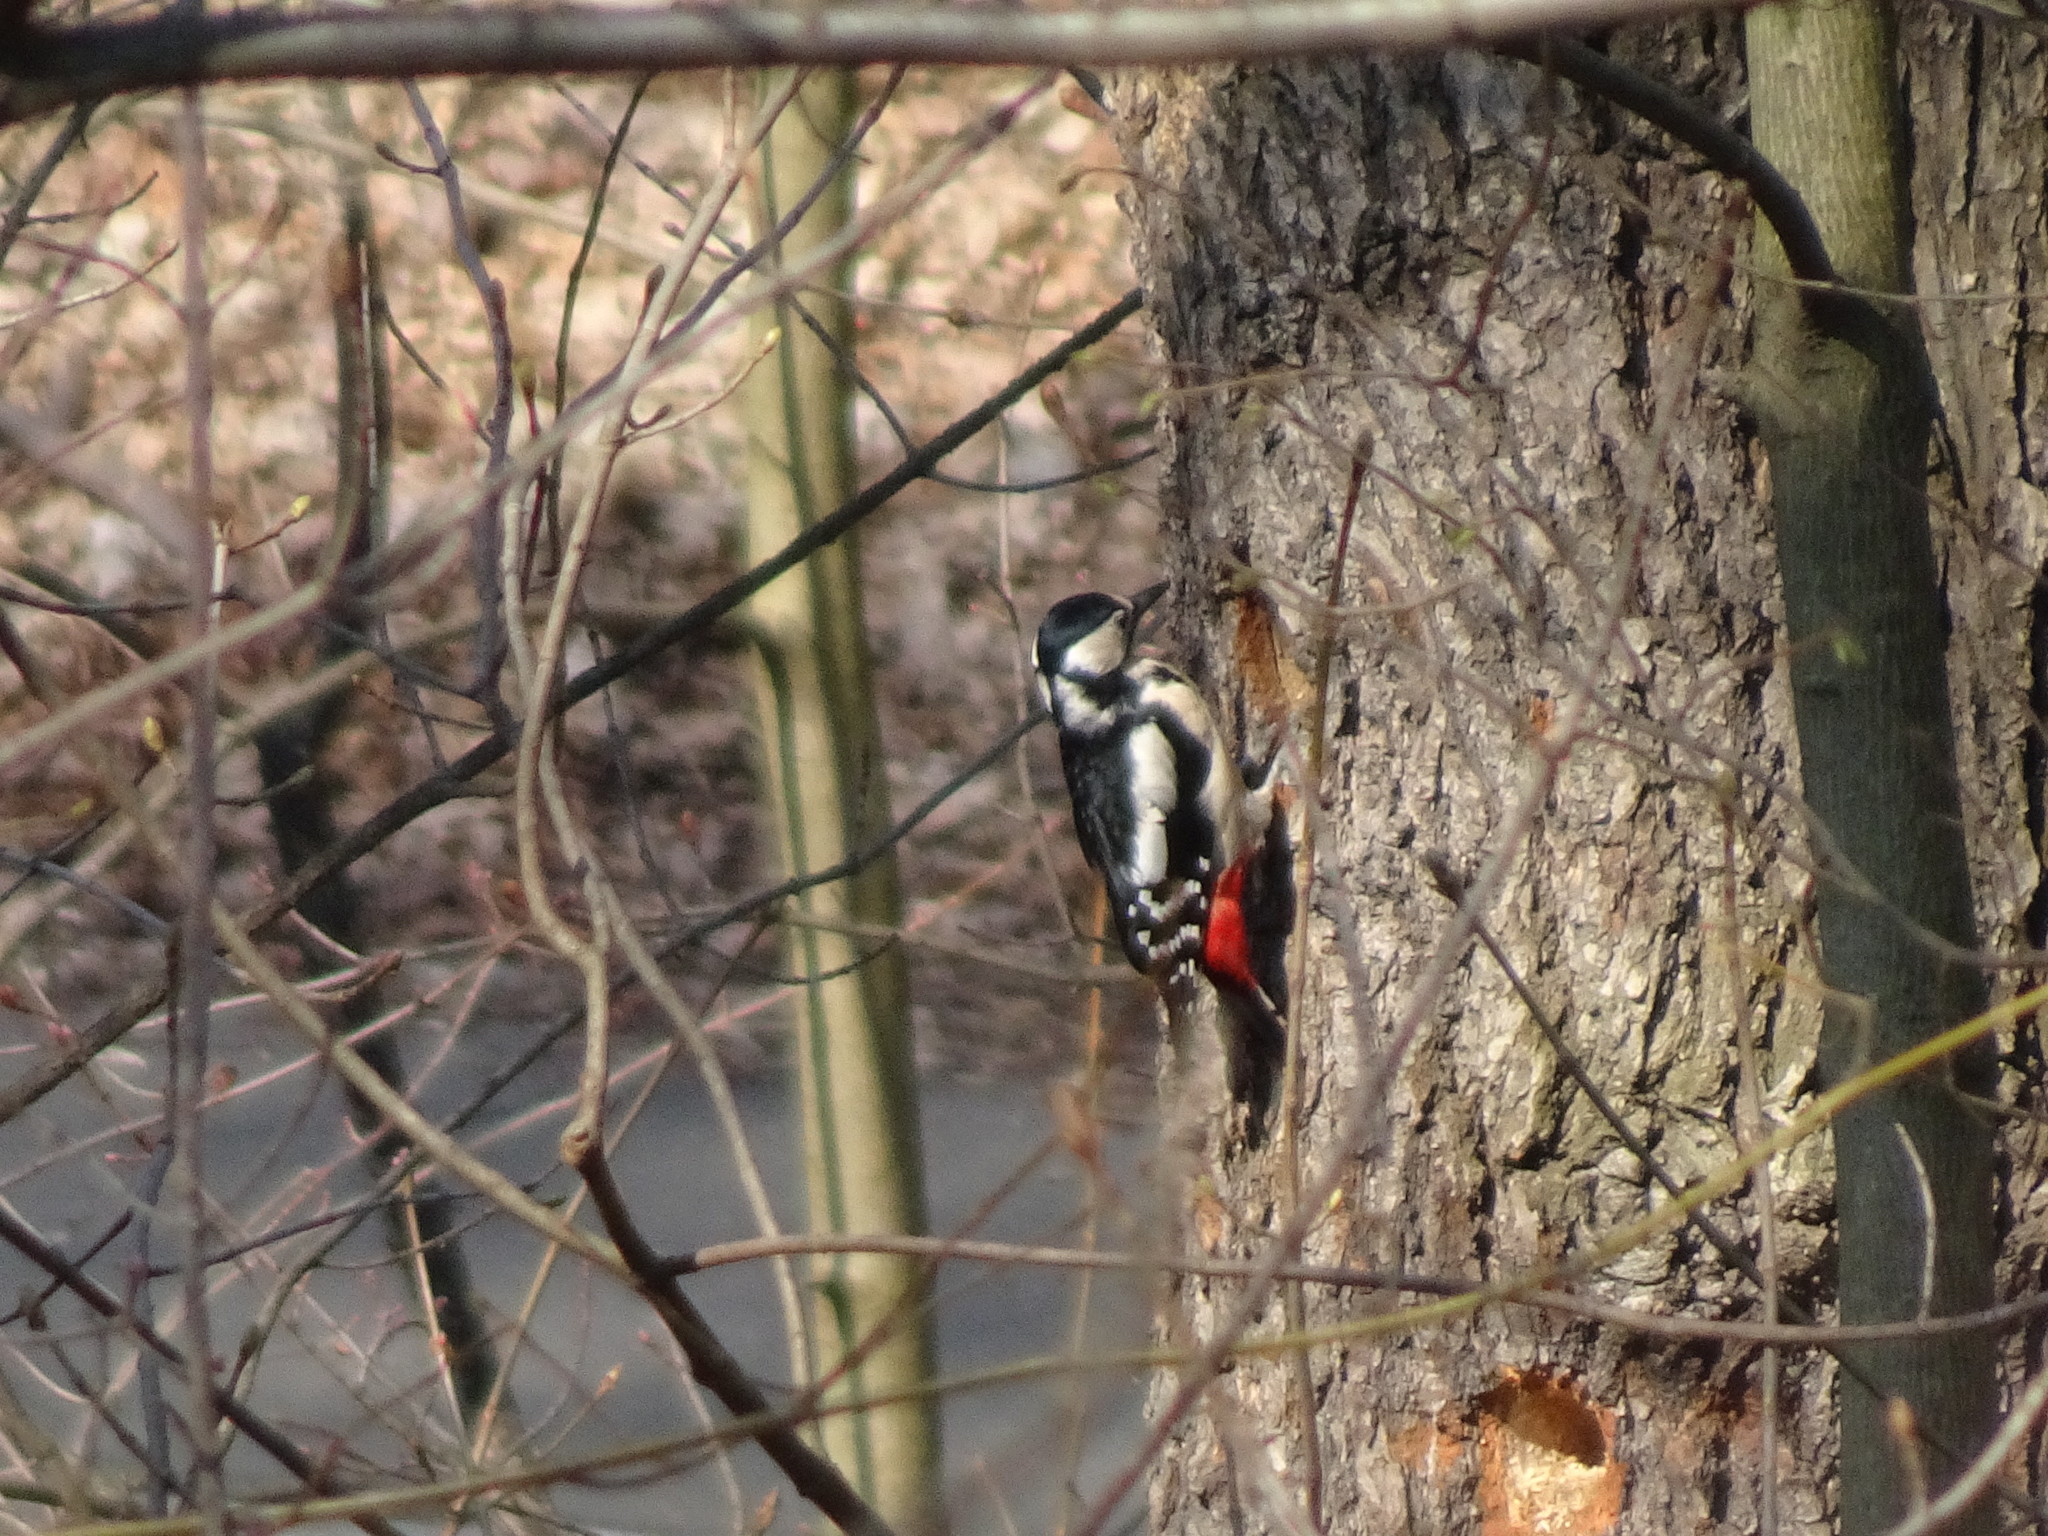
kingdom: Animalia
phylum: Chordata
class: Aves
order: Piciformes
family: Picidae
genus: Dendrocopos
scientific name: Dendrocopos major
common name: Great spotted woodpecker
